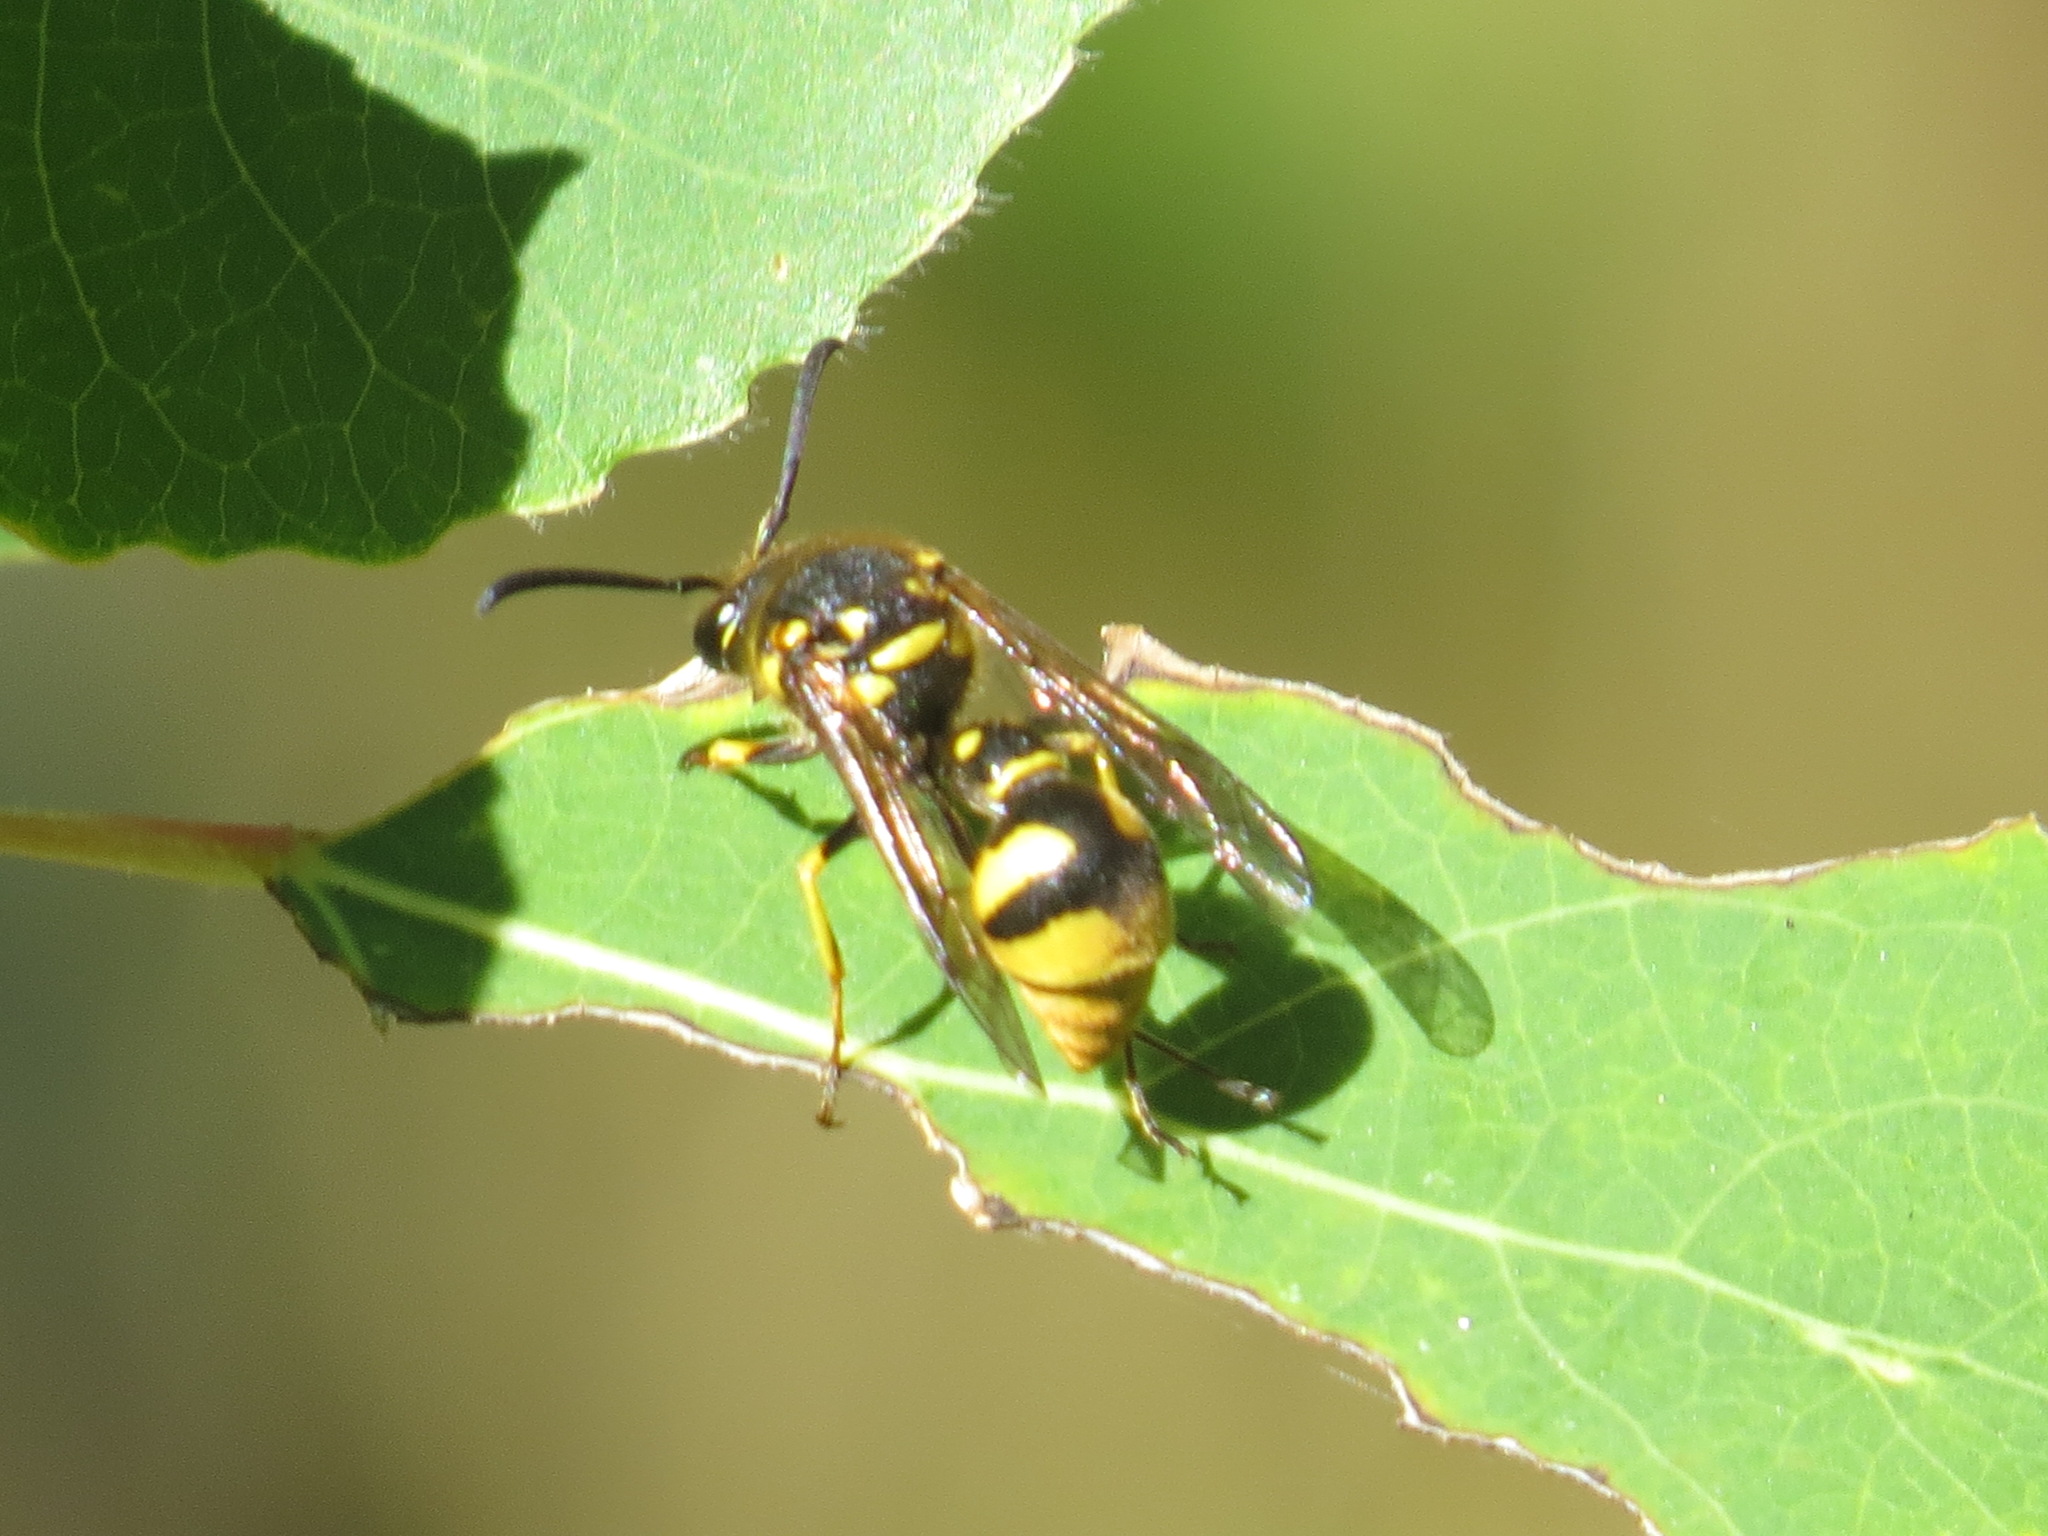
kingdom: Animalia
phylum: Arthropoda
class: Insecta
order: Hymenoptera
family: Vespidae
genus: Eumenes
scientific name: Eumenes crucifera
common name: Cross potter wasp
